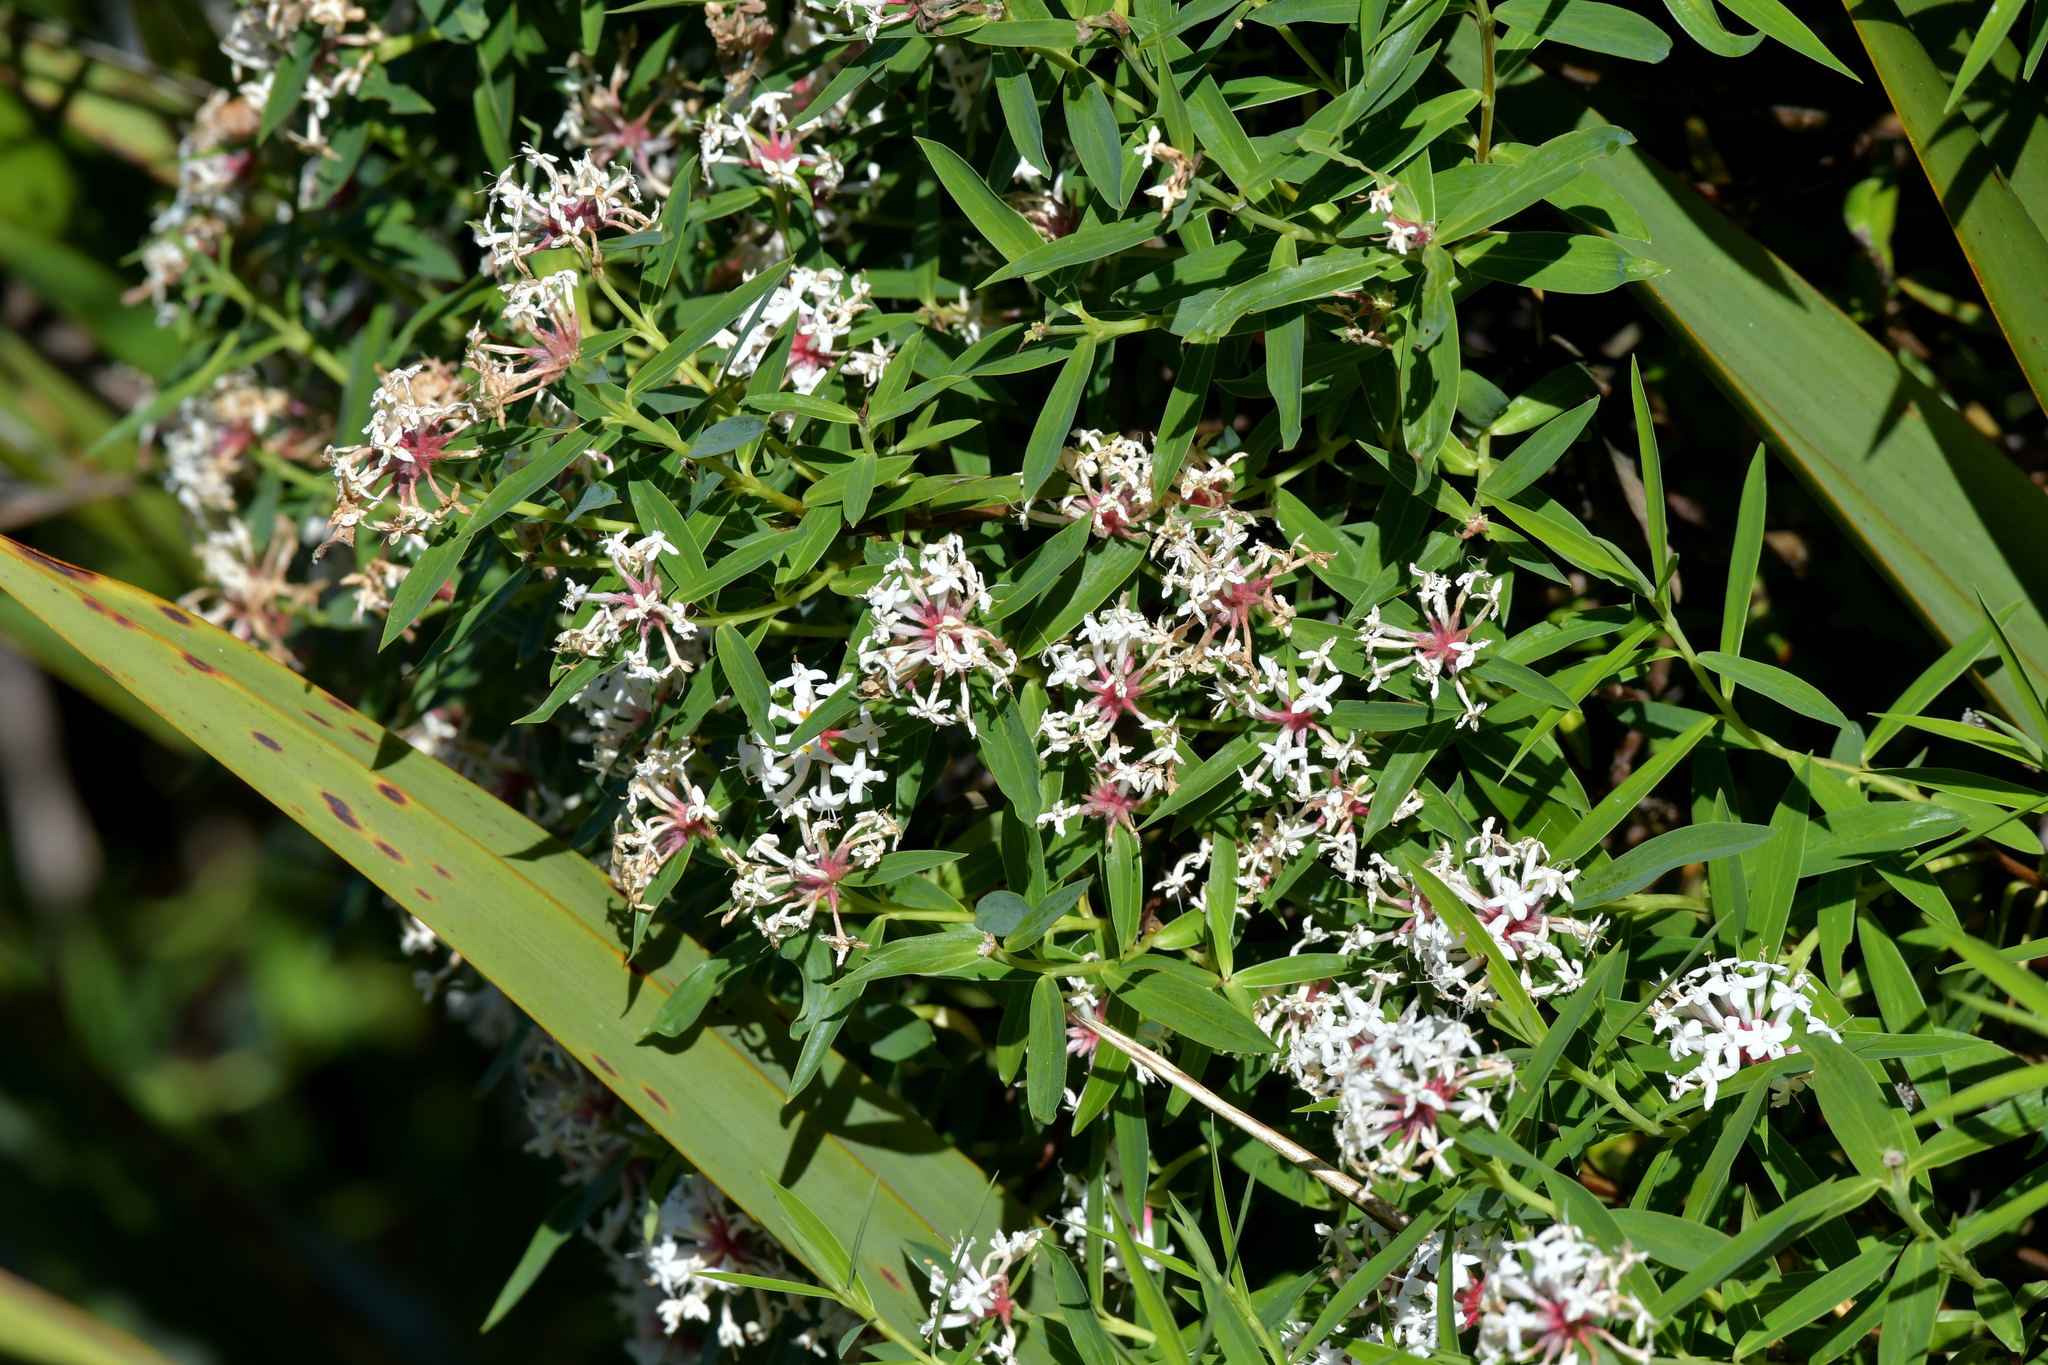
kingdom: Plantae
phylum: Tracheophyta
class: Magnoliopsida
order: Malvales
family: Thymelaeaceae
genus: Pimelea
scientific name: Pimelea longifolia
